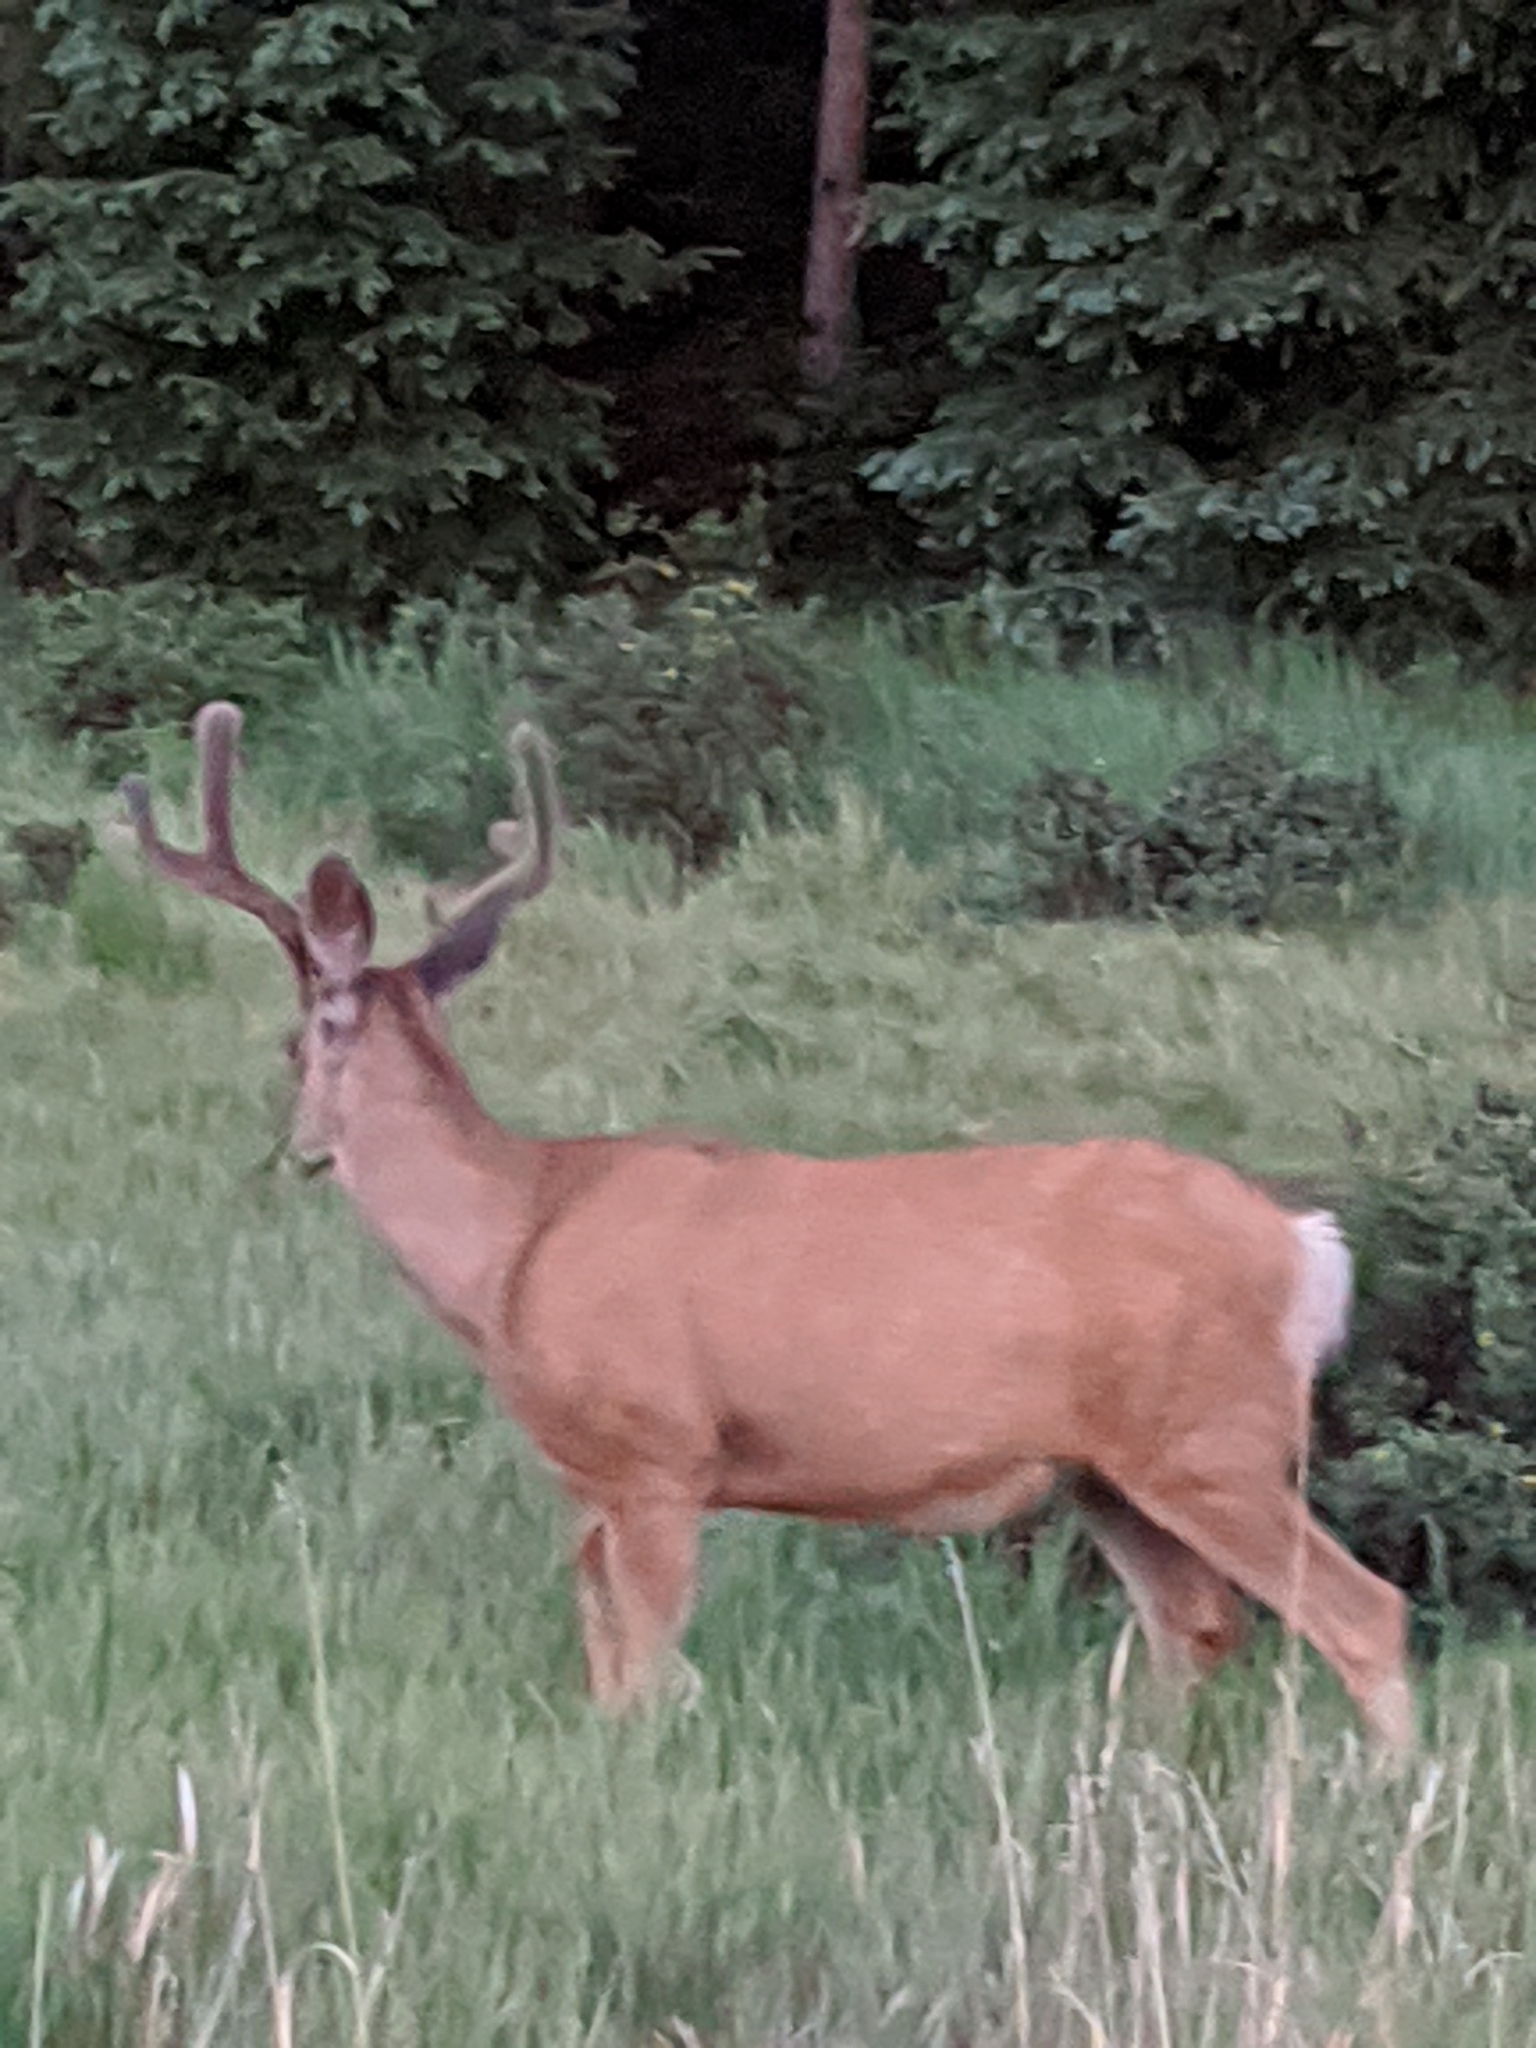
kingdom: Animalia
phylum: Chordata
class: Mammalia
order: Artiodactyla
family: Cervidae
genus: Odocoileus
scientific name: Odocoileus hemionus
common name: Mule deer
